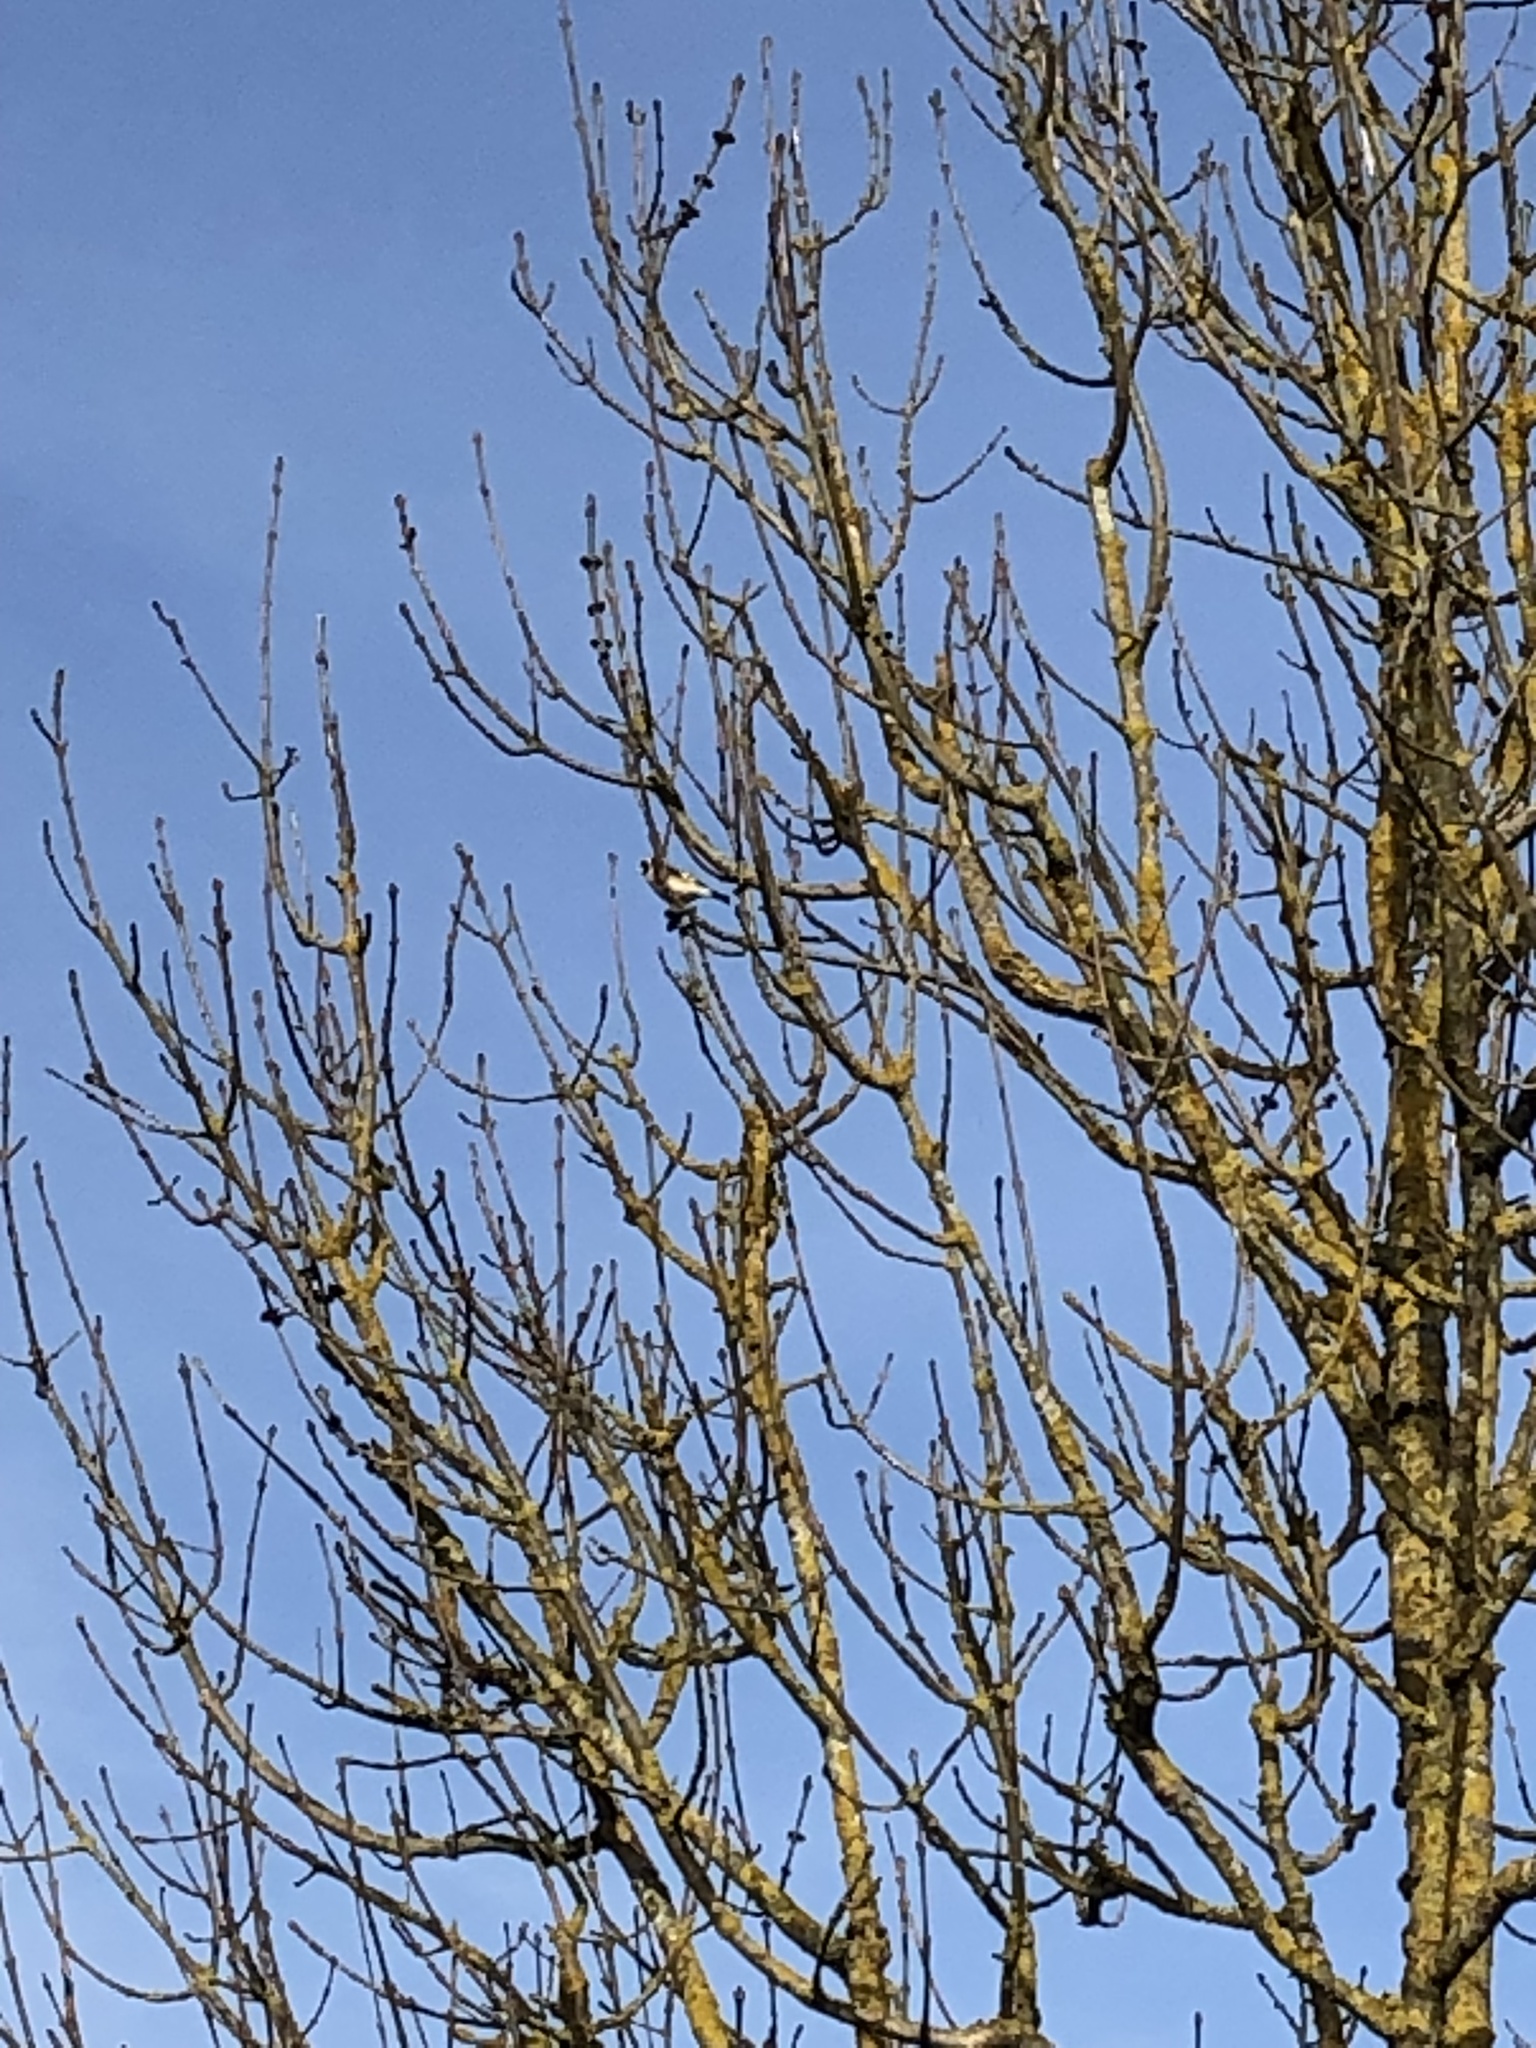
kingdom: Animalia
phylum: Chordata
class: Aves
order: Passeriformes
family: Fringillidae
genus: Carduelis
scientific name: Carduelis carduelis
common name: European goldfinch
